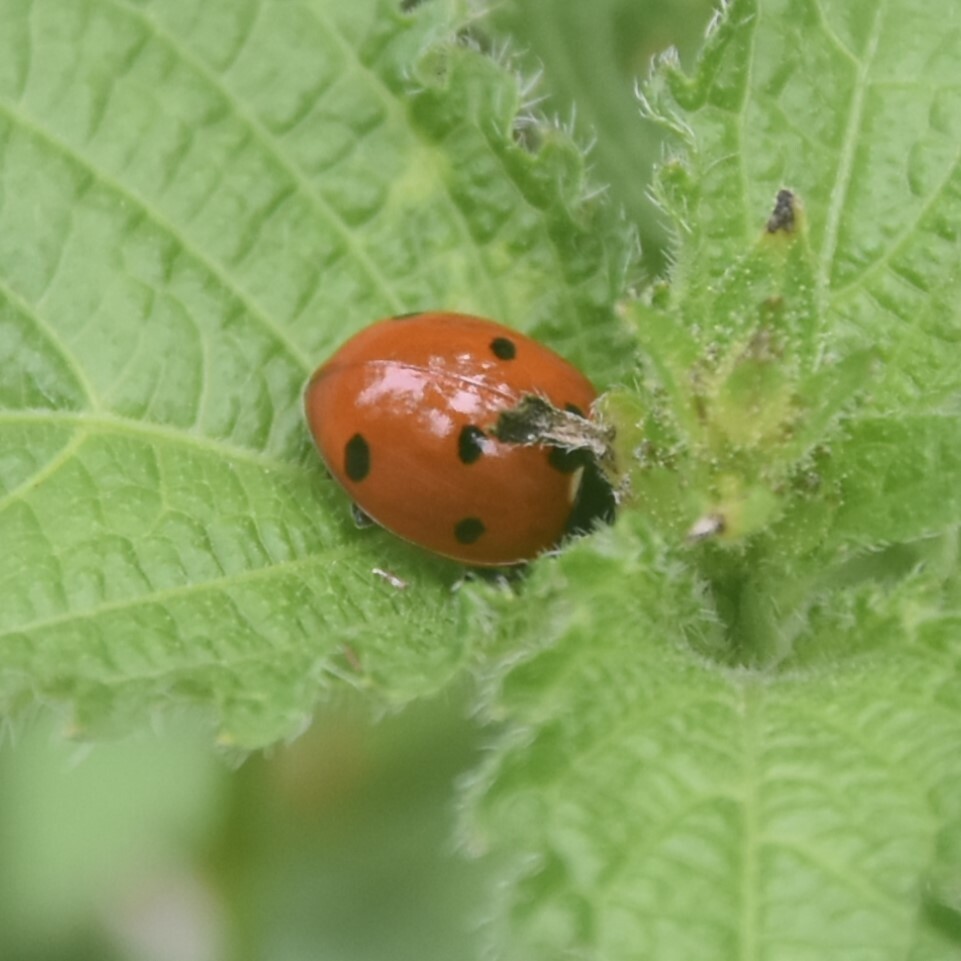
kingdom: Animalia
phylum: Arthropoda
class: Insecta
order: Coleoptera
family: Coccinellidae
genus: Coccinella
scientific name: Coccinella septempunctata
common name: Sevenspotted lady beetle
